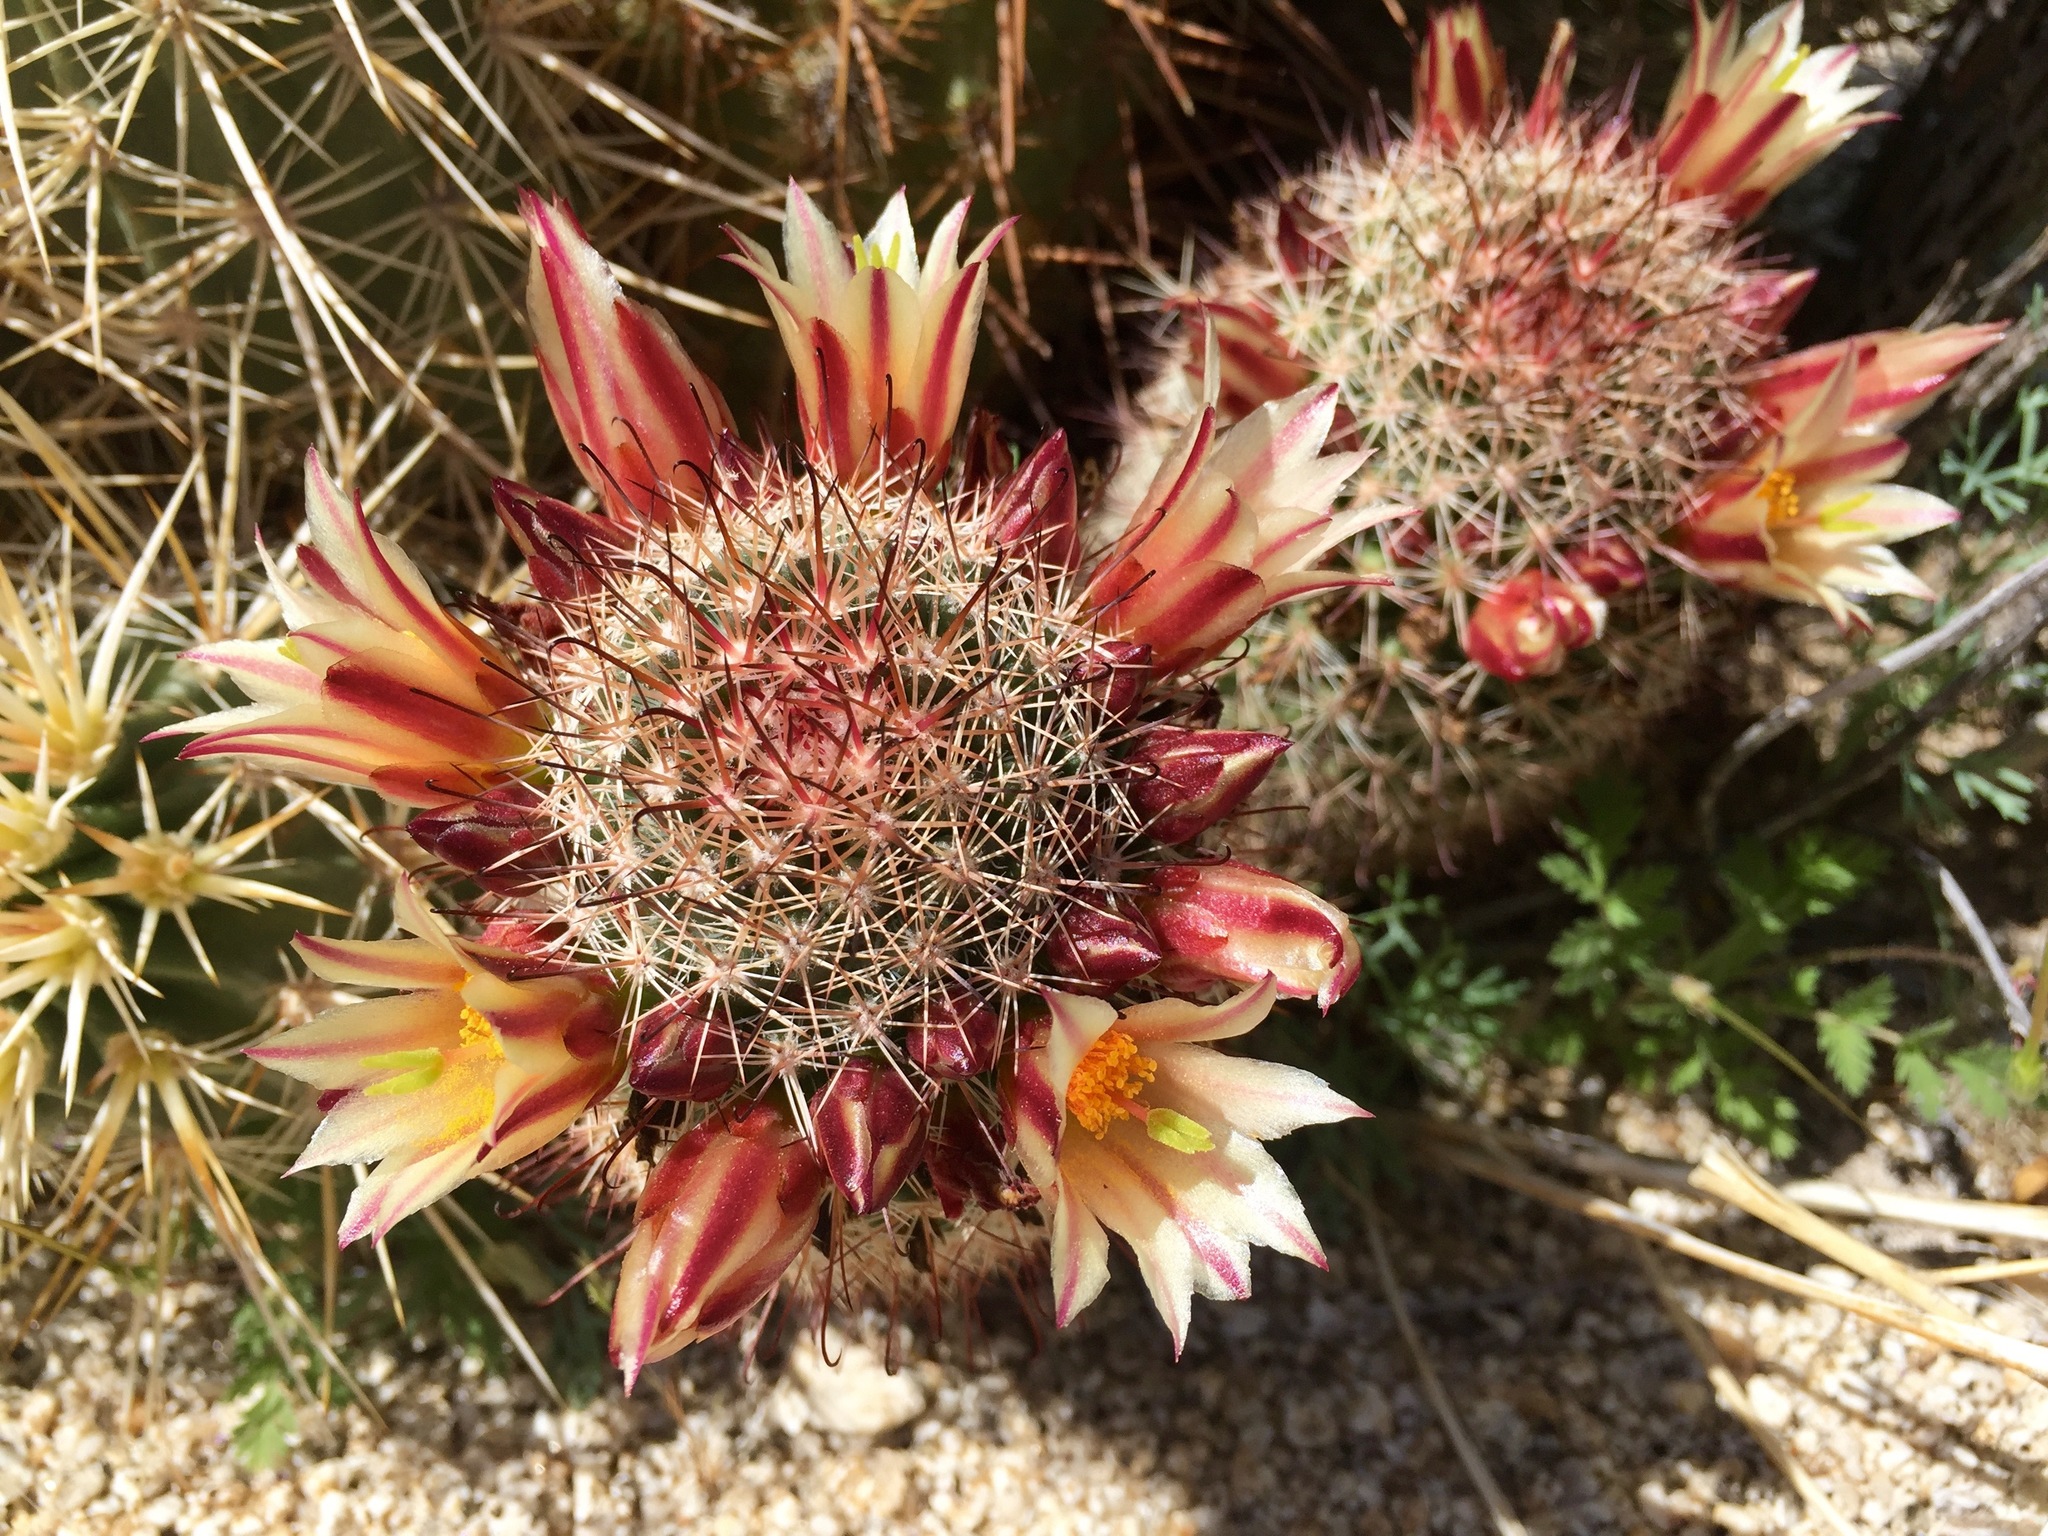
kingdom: Plantae
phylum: Tracheophyta
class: Magnoliopsida
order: Caryophyllales
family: Cactaceae
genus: Cochemiea
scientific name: Cochemiea dioica
